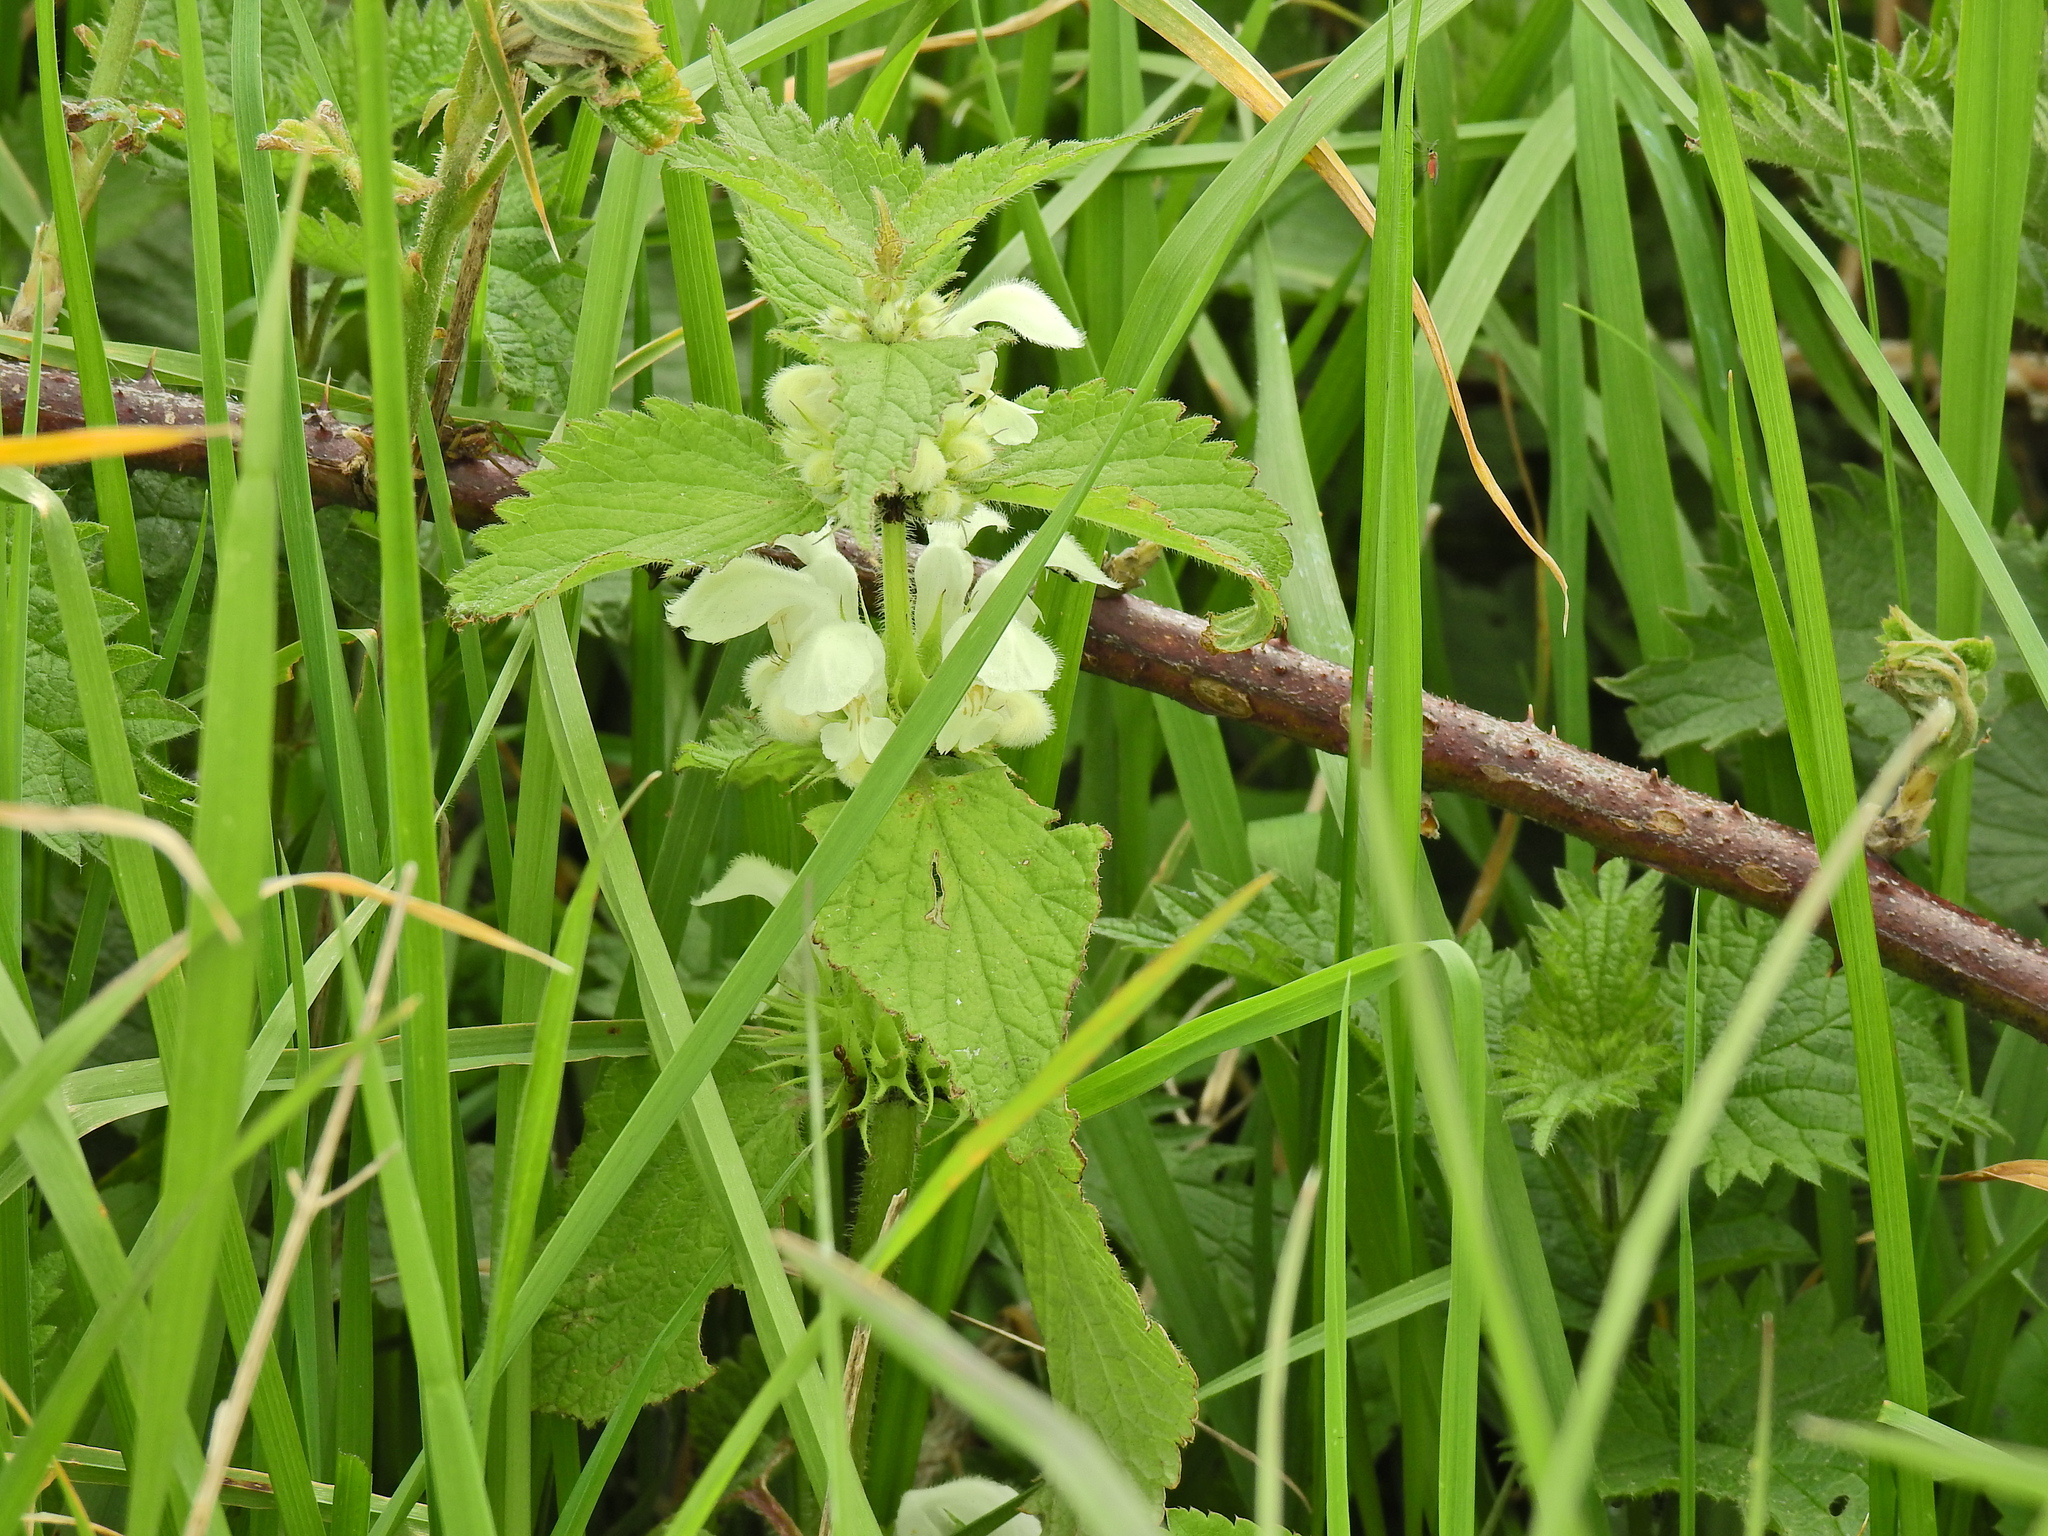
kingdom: Plantae
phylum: Tracheophyta
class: Magnoliopsida
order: Lamiales
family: Lamiaceae
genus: Lamium
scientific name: Lamium album
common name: White dead-nettle
